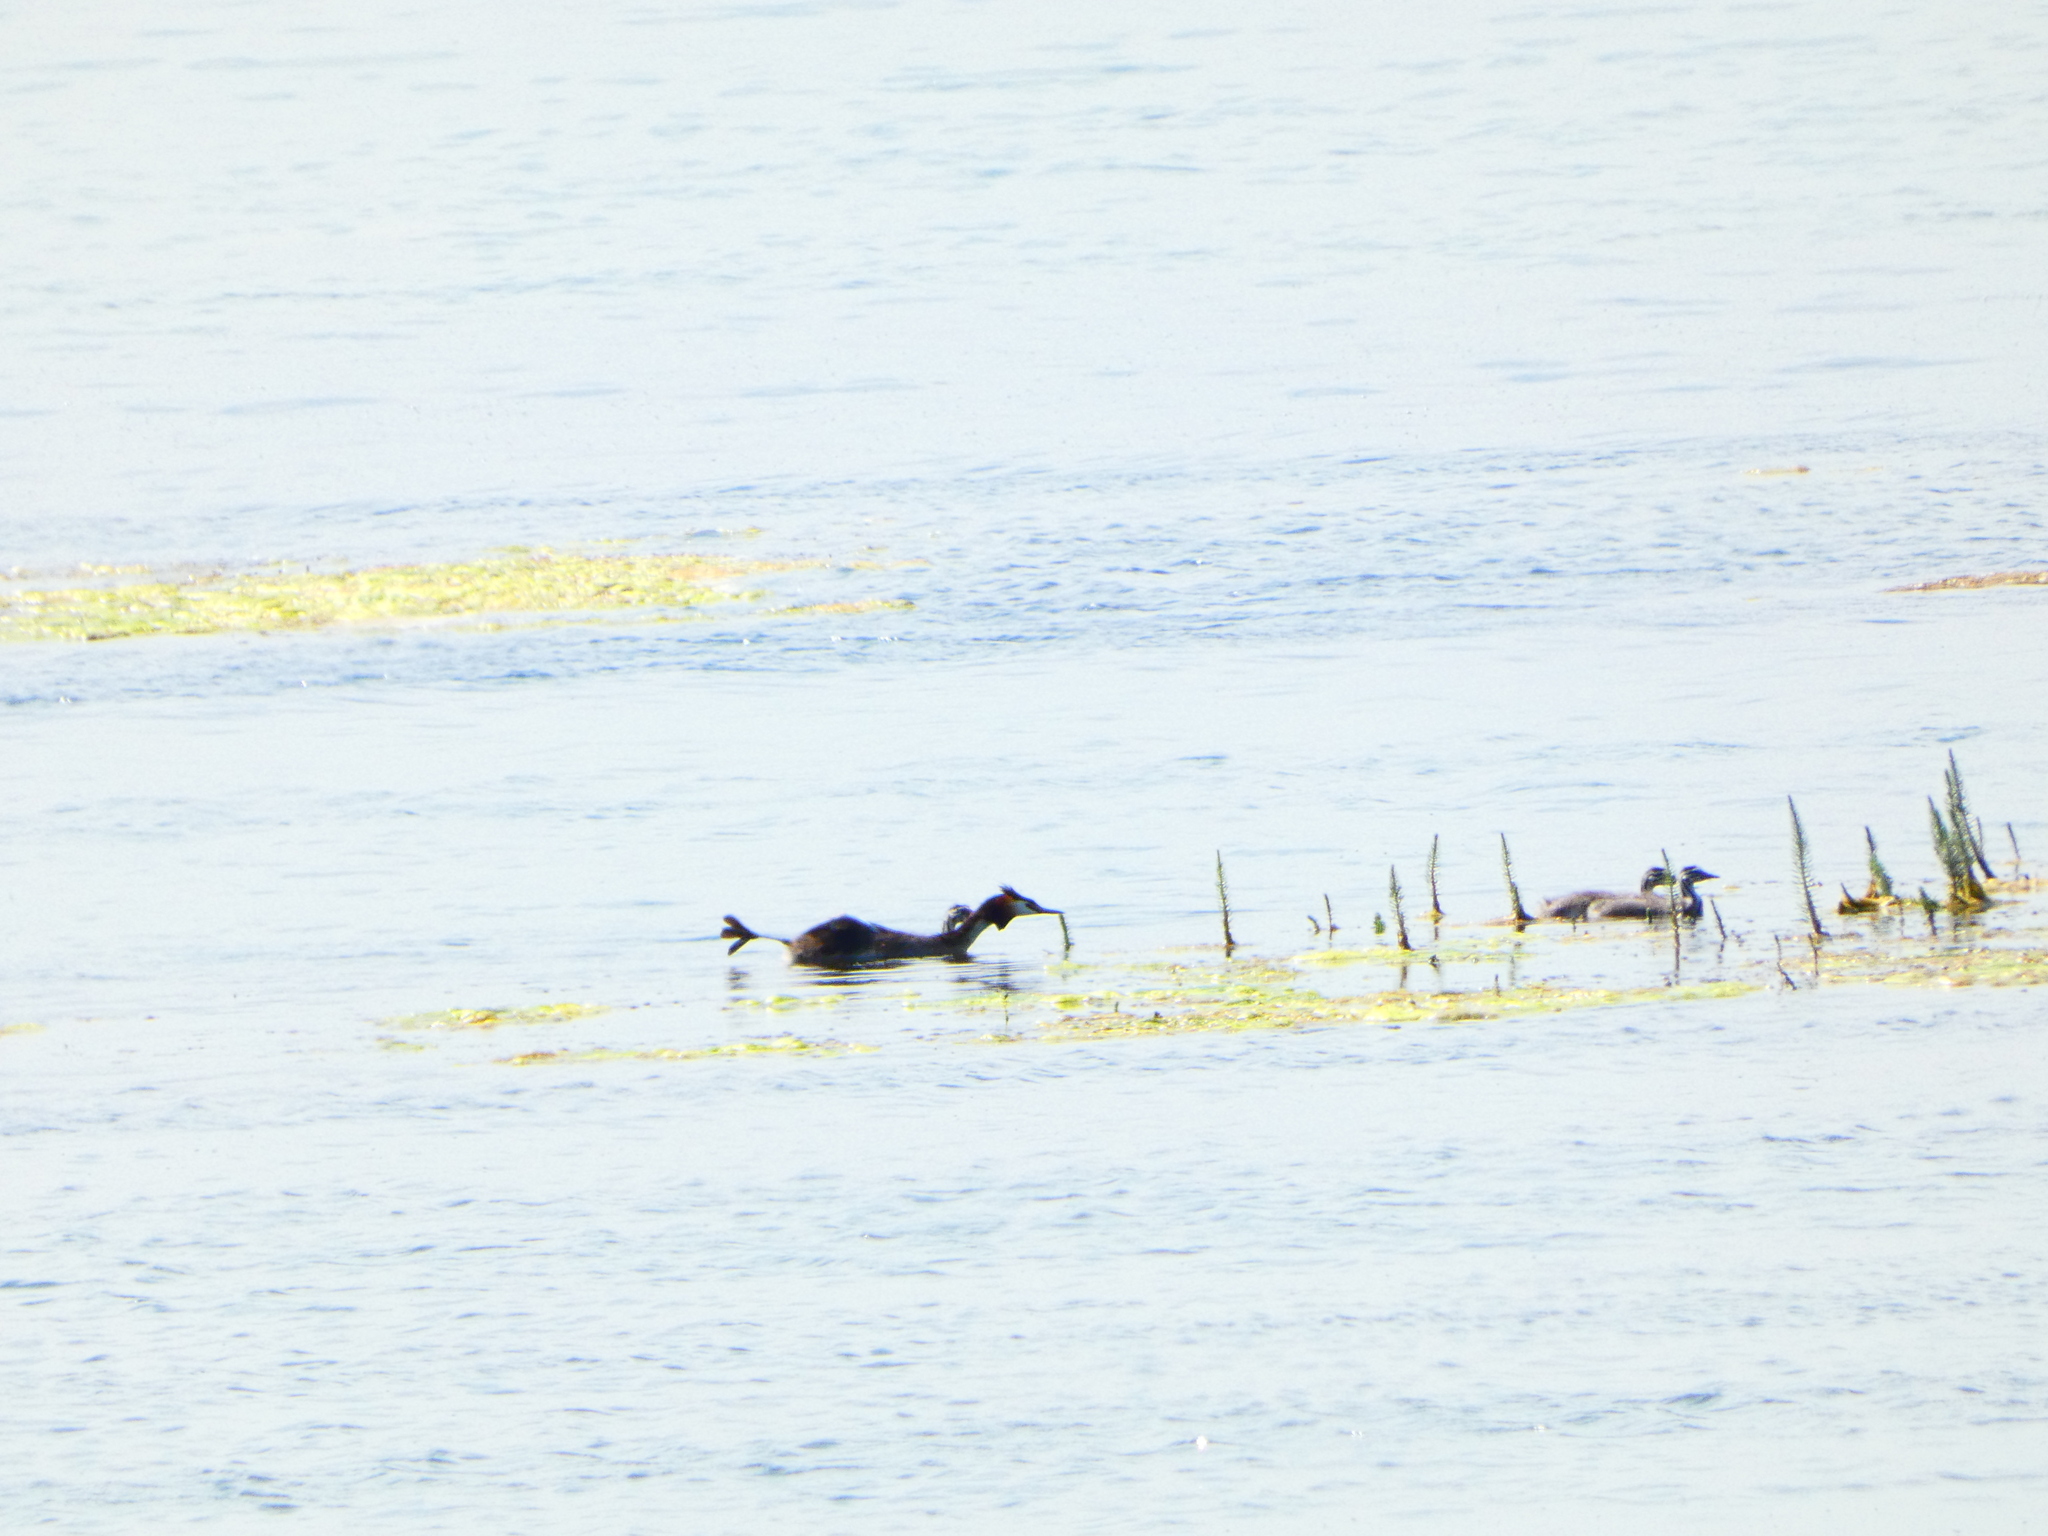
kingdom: Animalia
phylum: Chordata
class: Aves
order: Podicipediformes
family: Podicipedidae
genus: Podiceps
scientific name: Podiceps cristatus
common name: Great crested grebe
